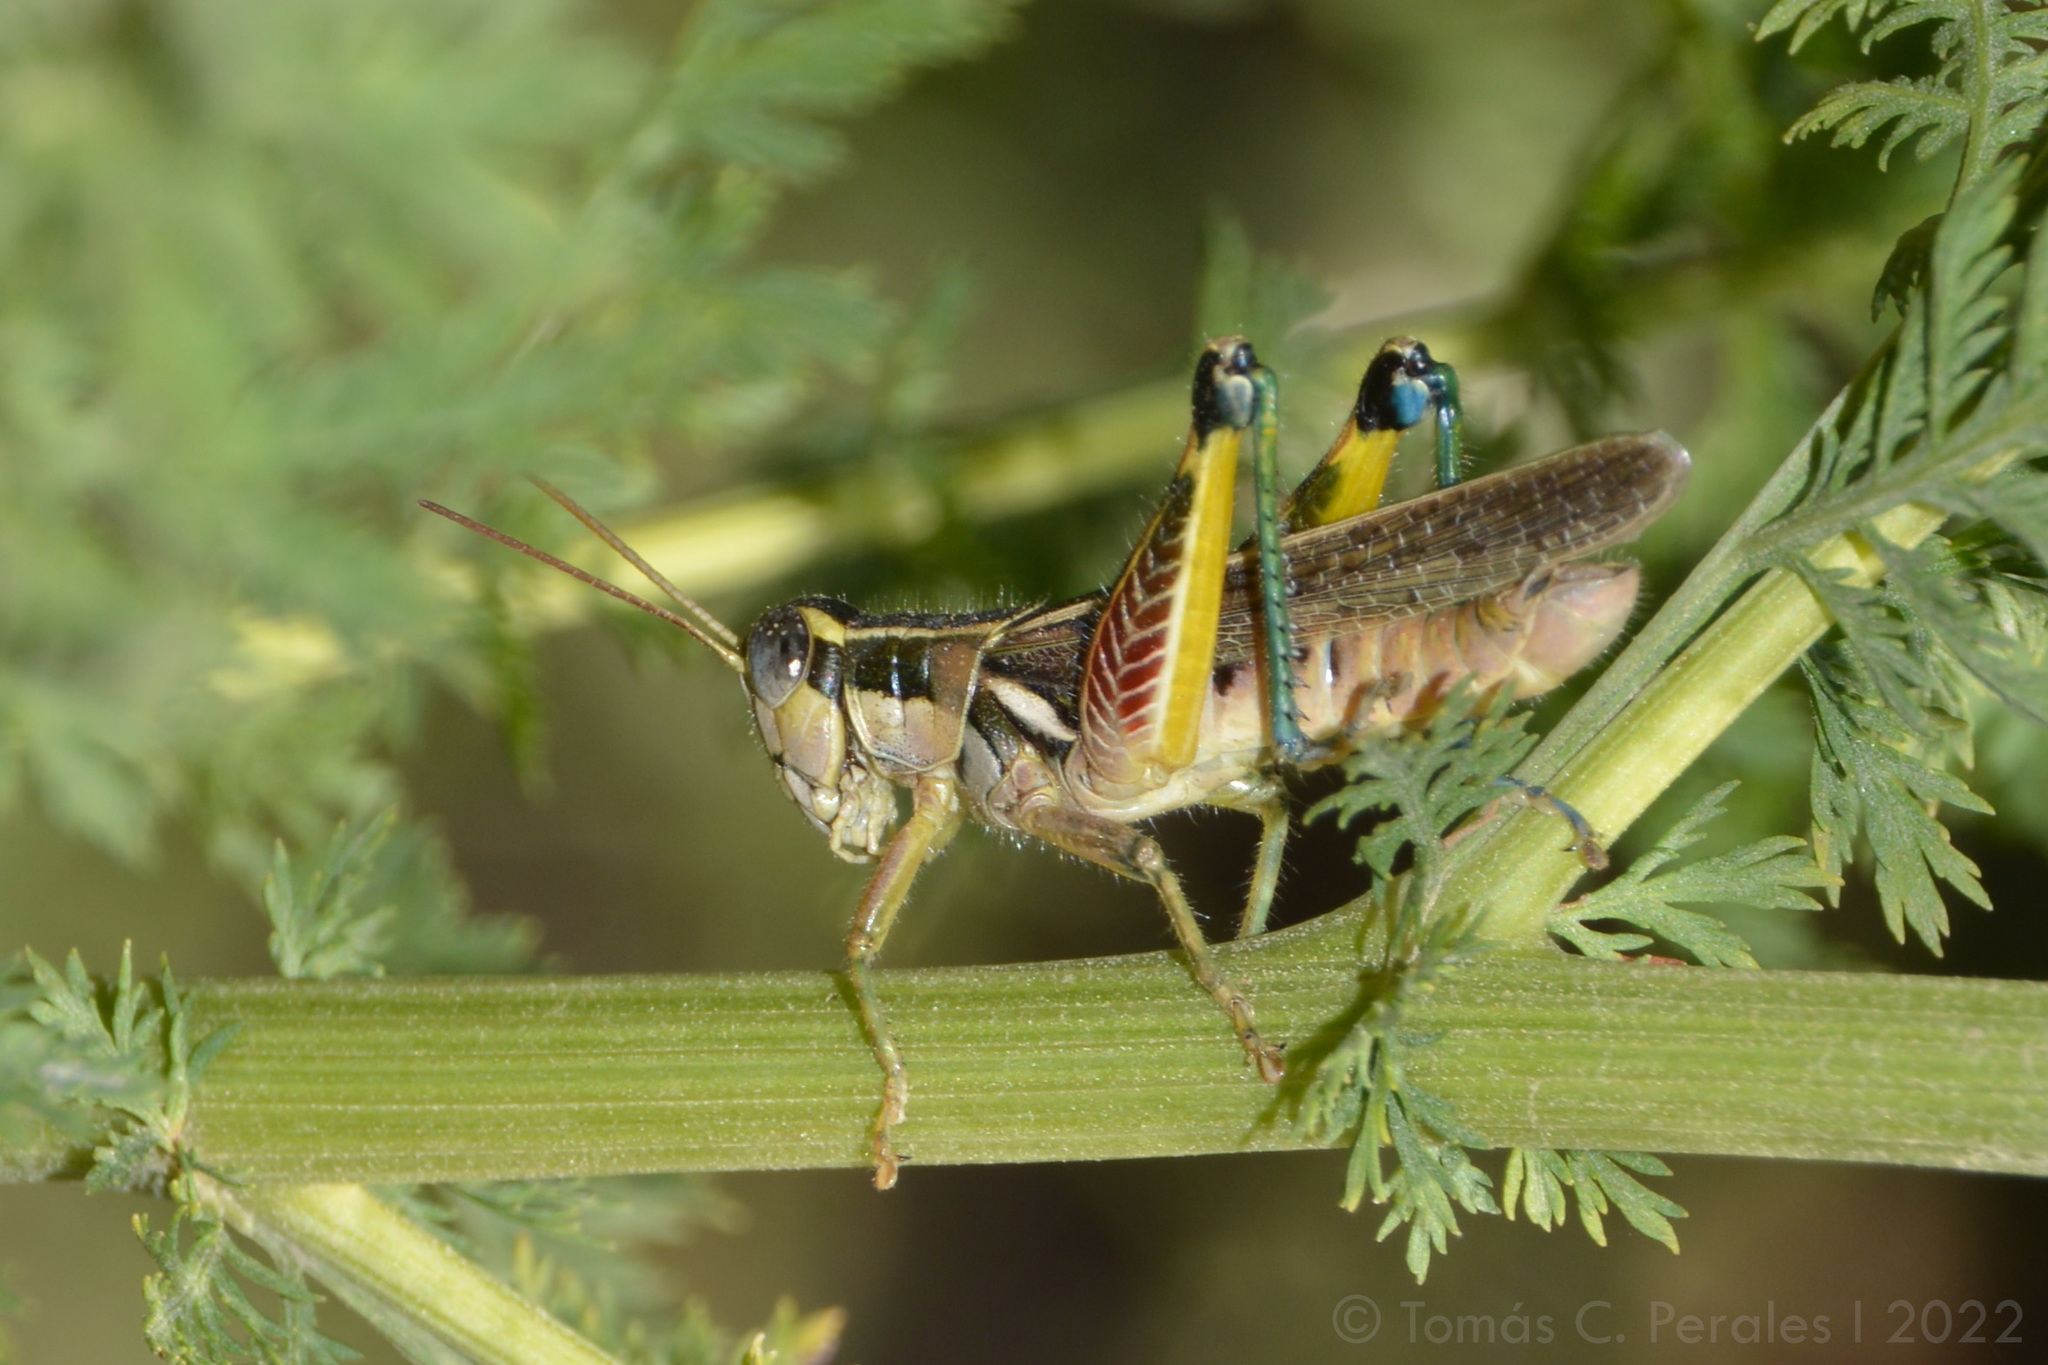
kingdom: Animalia
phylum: Arthropoda
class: Insecta
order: Orthoptera
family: Acrididae
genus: Dichroplus
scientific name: Dichroplus vittatus
